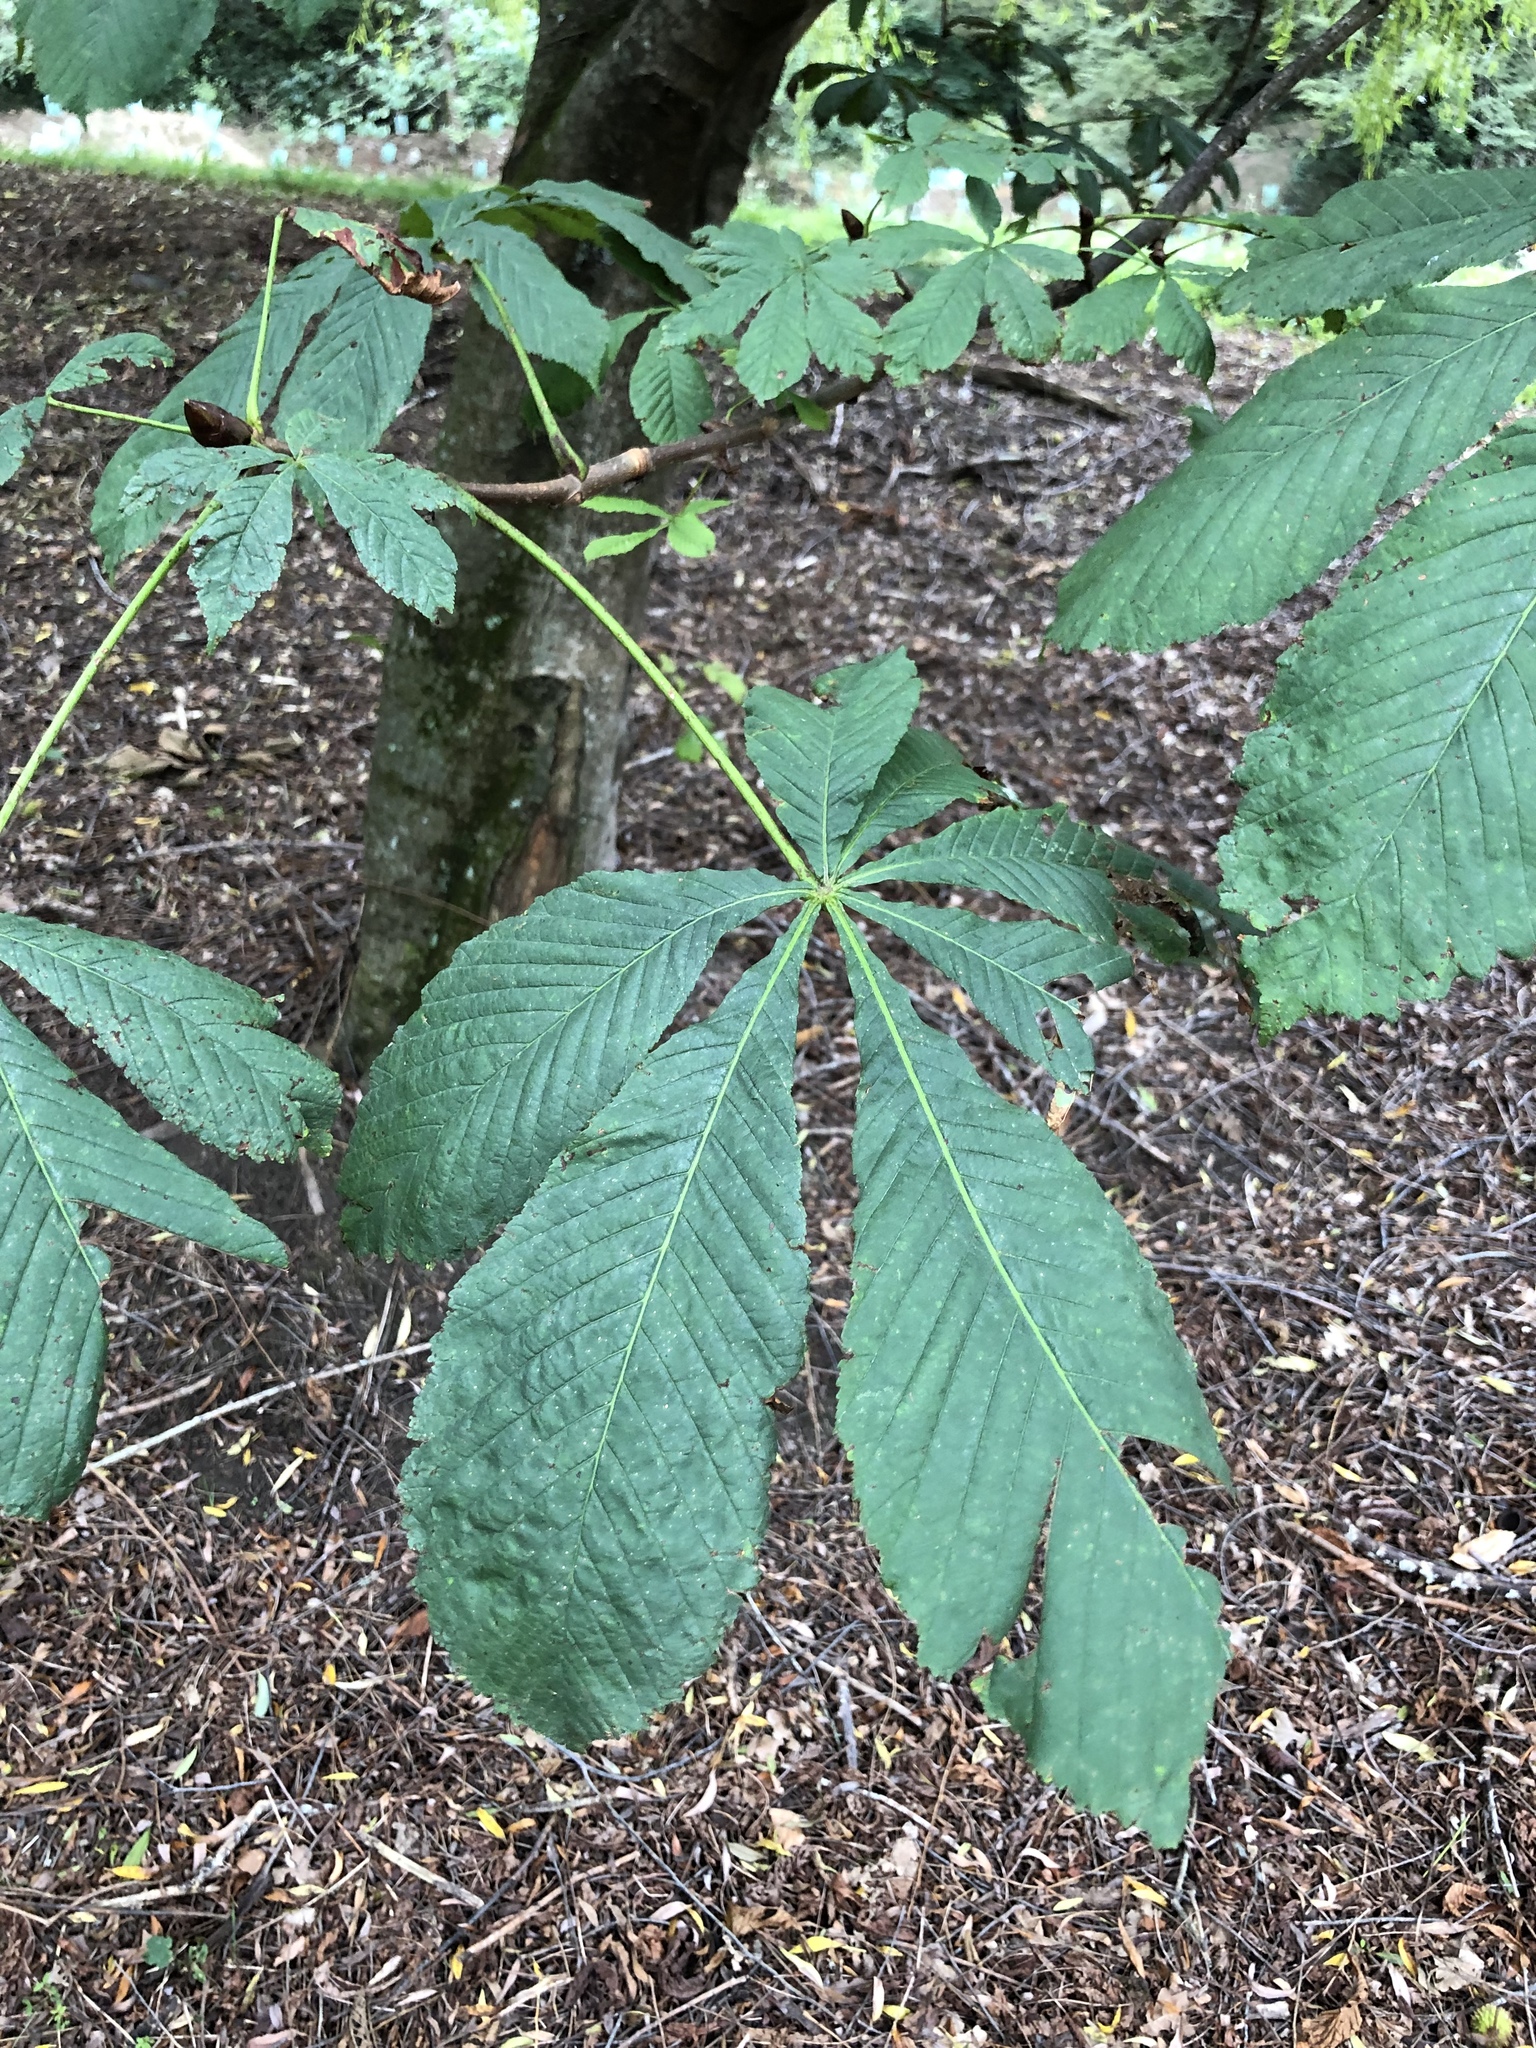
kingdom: Plantae
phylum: Tracheophyta
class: Magnoliopsida
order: Sapindales
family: Sapindaceae
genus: Aesculus
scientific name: Aesculus hippocastanum
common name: Horse-chestnut
